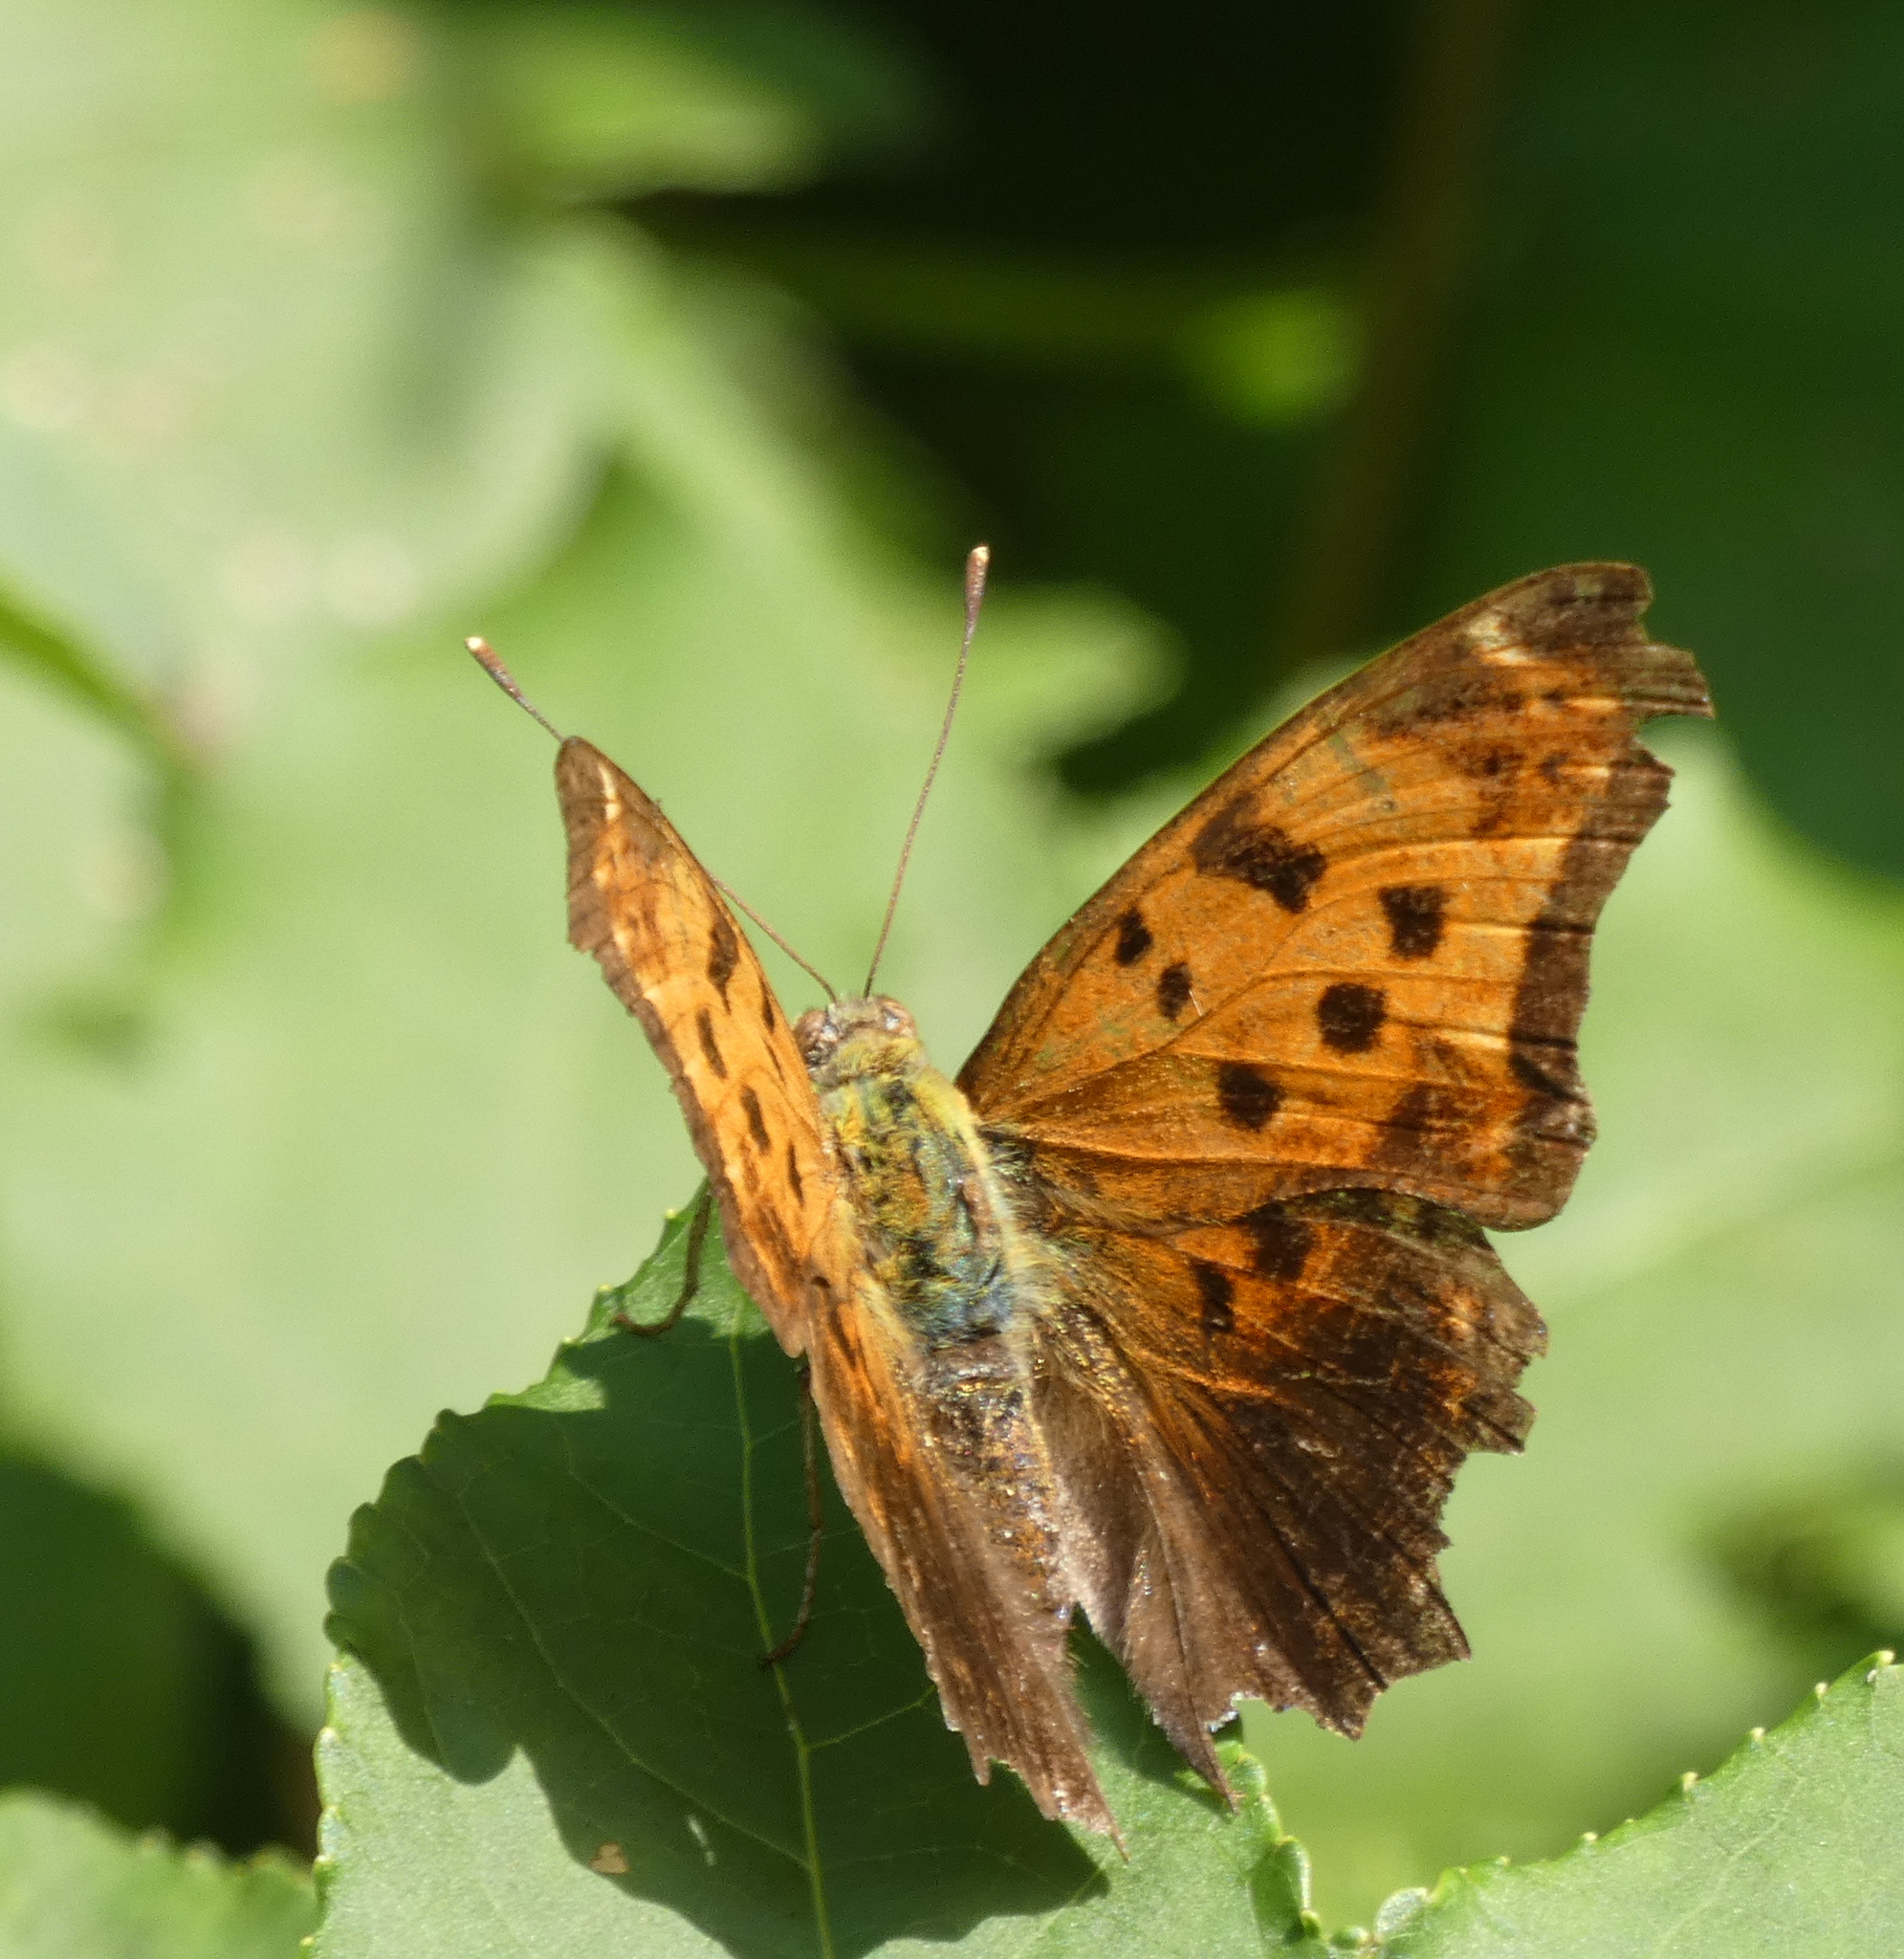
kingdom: Animalia
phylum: Arthropoda
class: Insecta
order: Lepidoptera
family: Nymphalidae
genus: Polygonia
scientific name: Polygonia comma
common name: Eastern comma
